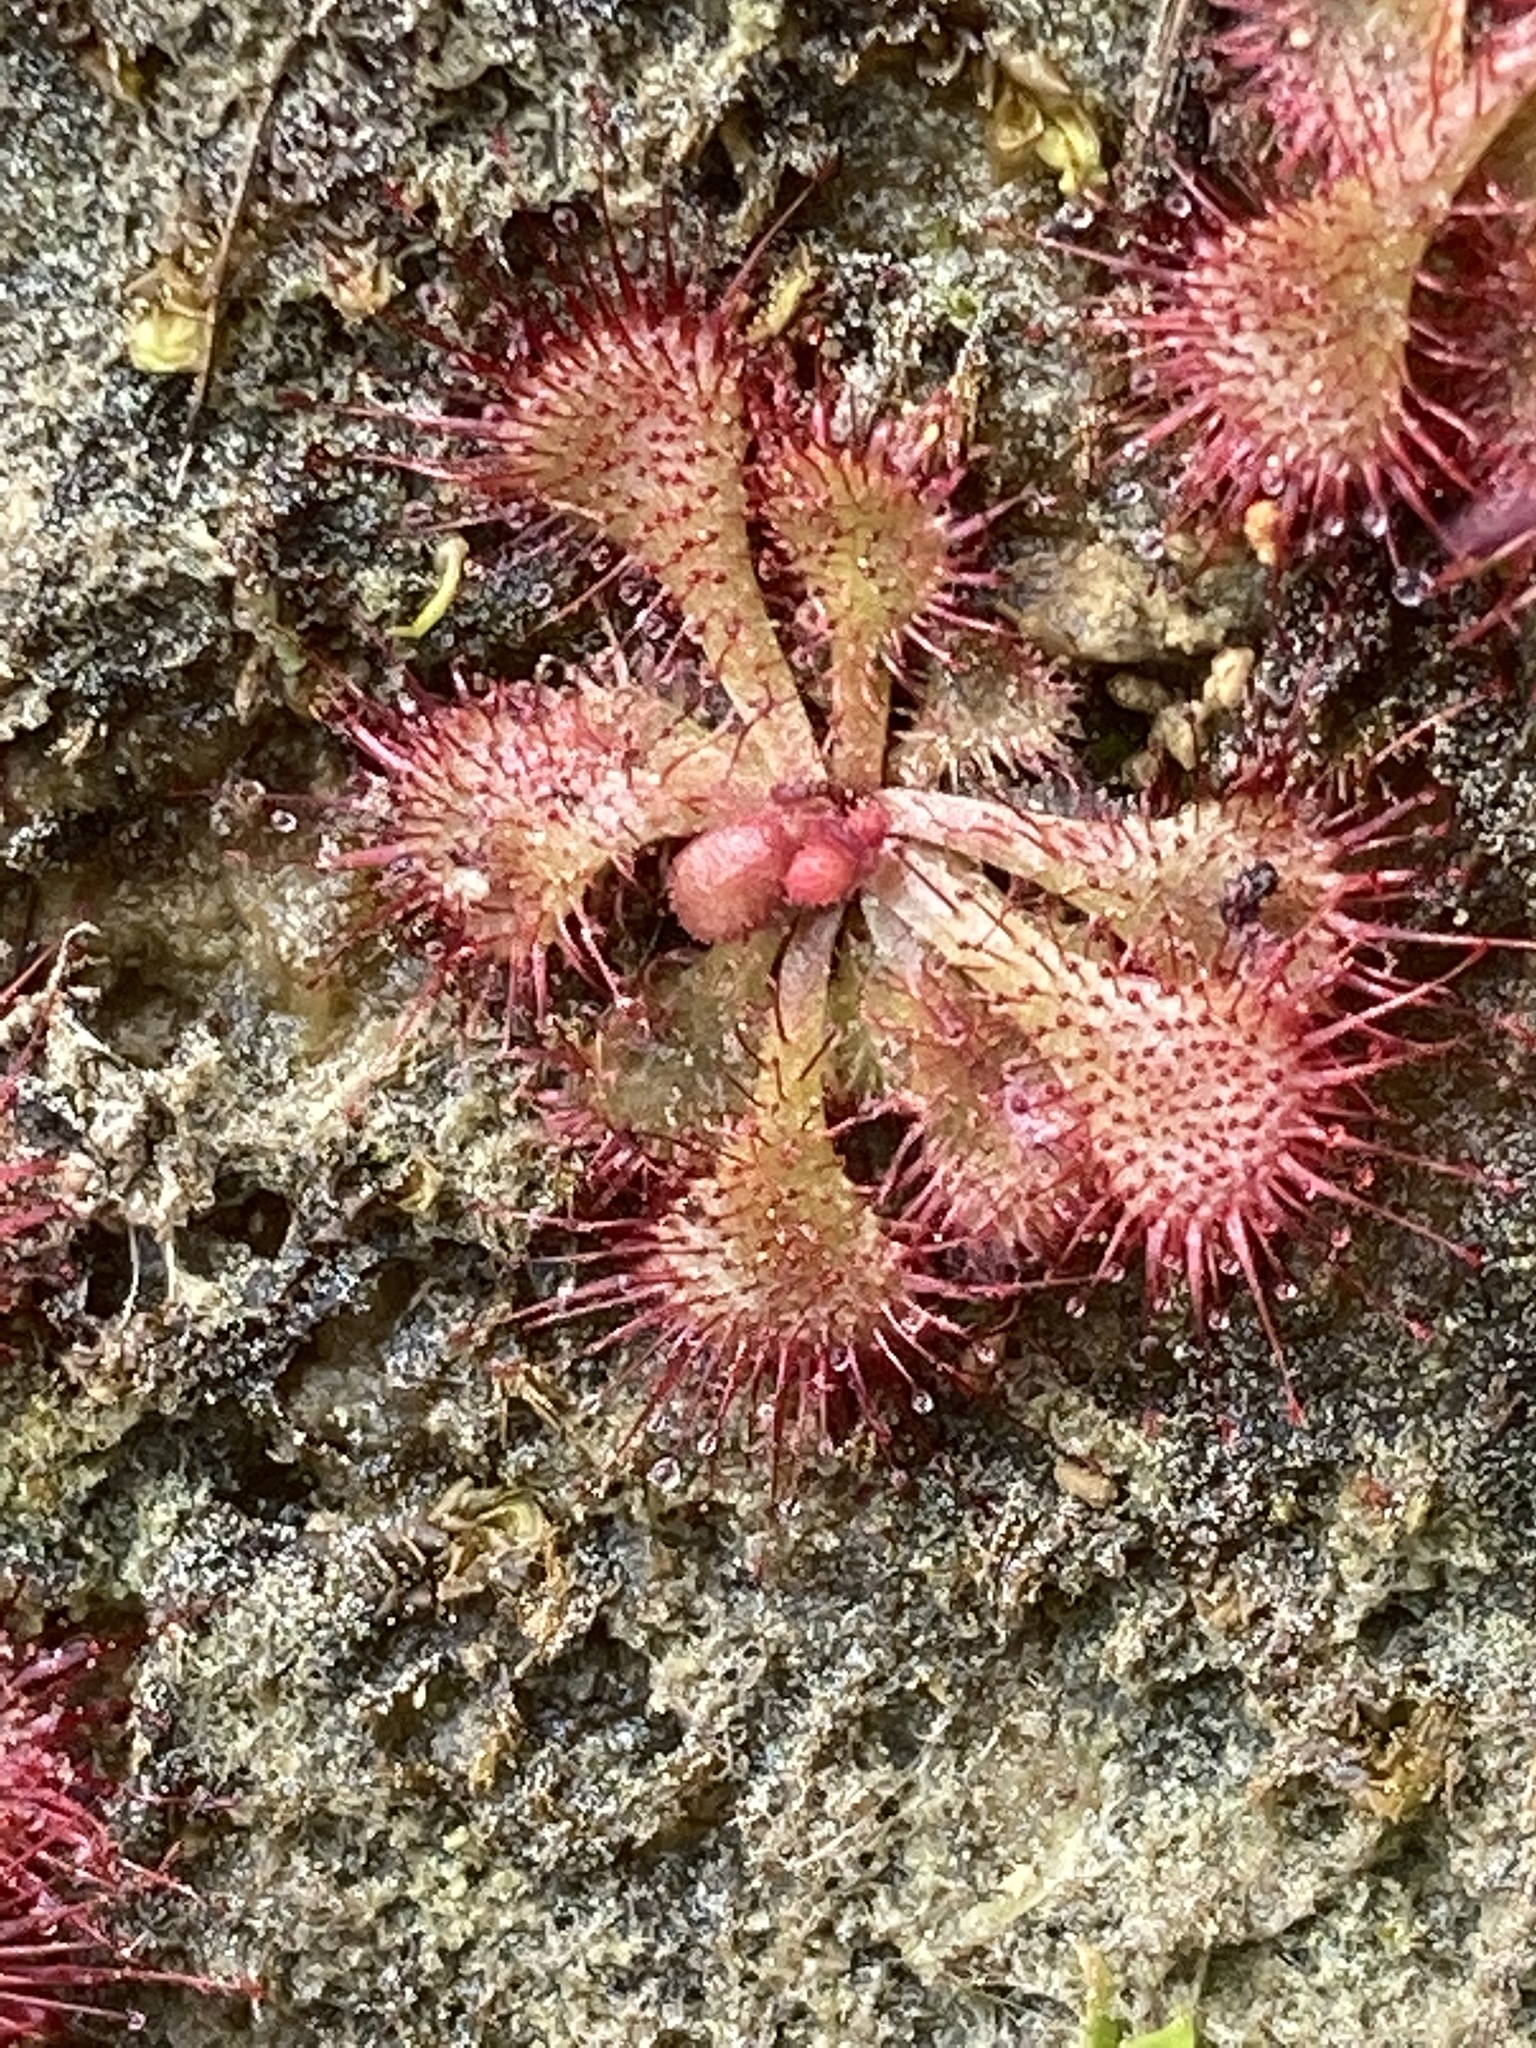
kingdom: Plantae
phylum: Tracheophyta
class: Magnoliopsida
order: Caryophyllales
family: Droseraceae
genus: Drosera
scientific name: Drosera brevifolia
